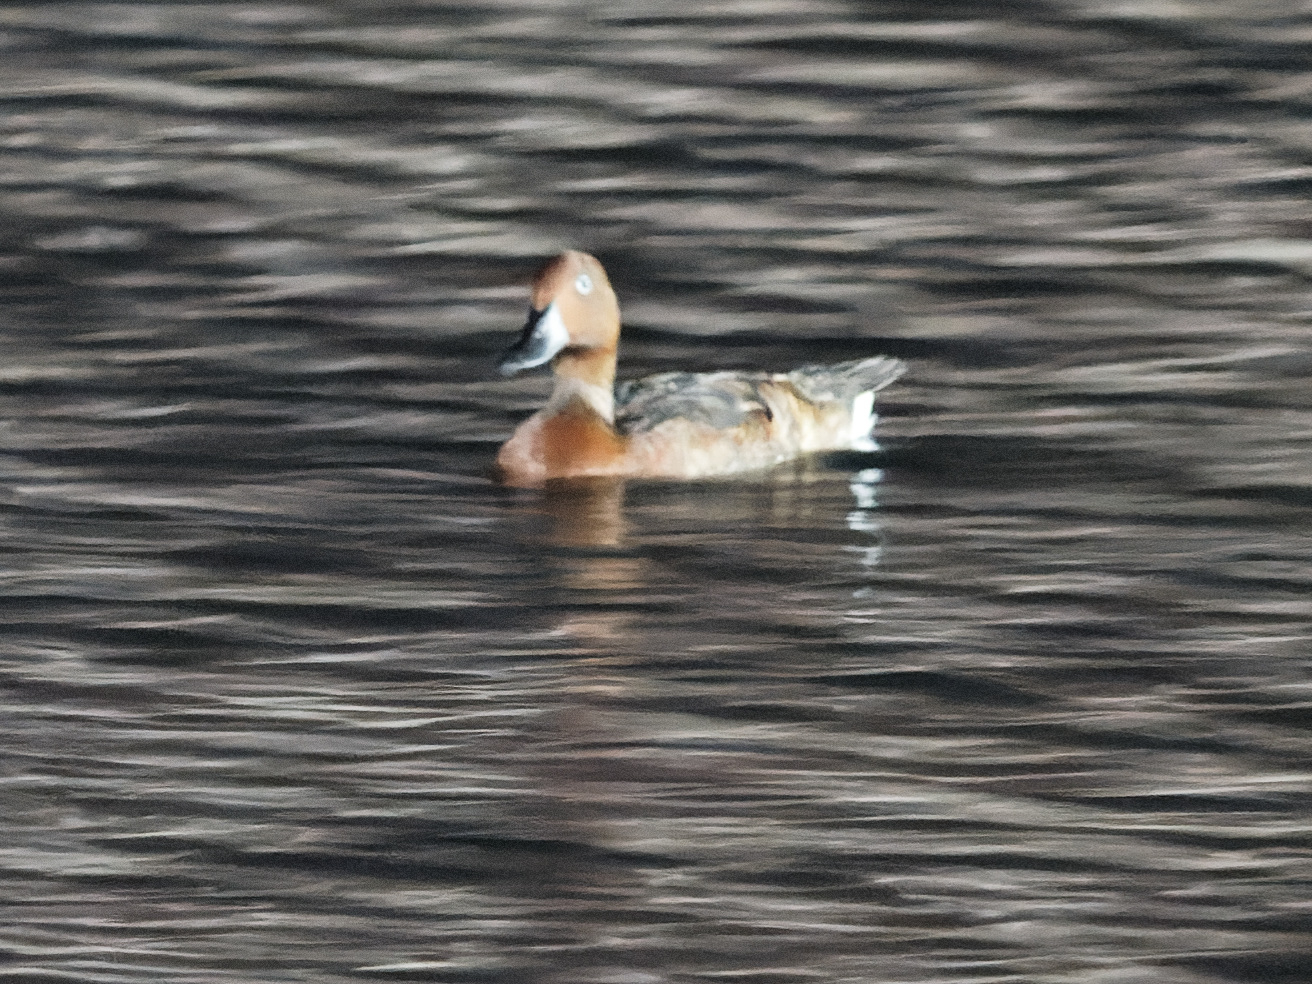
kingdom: Animalia
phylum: Chordata
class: Aves
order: Anseriformes
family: Anatidae
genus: Aythya
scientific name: Aythya nyroca
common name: Ferruginous duck
